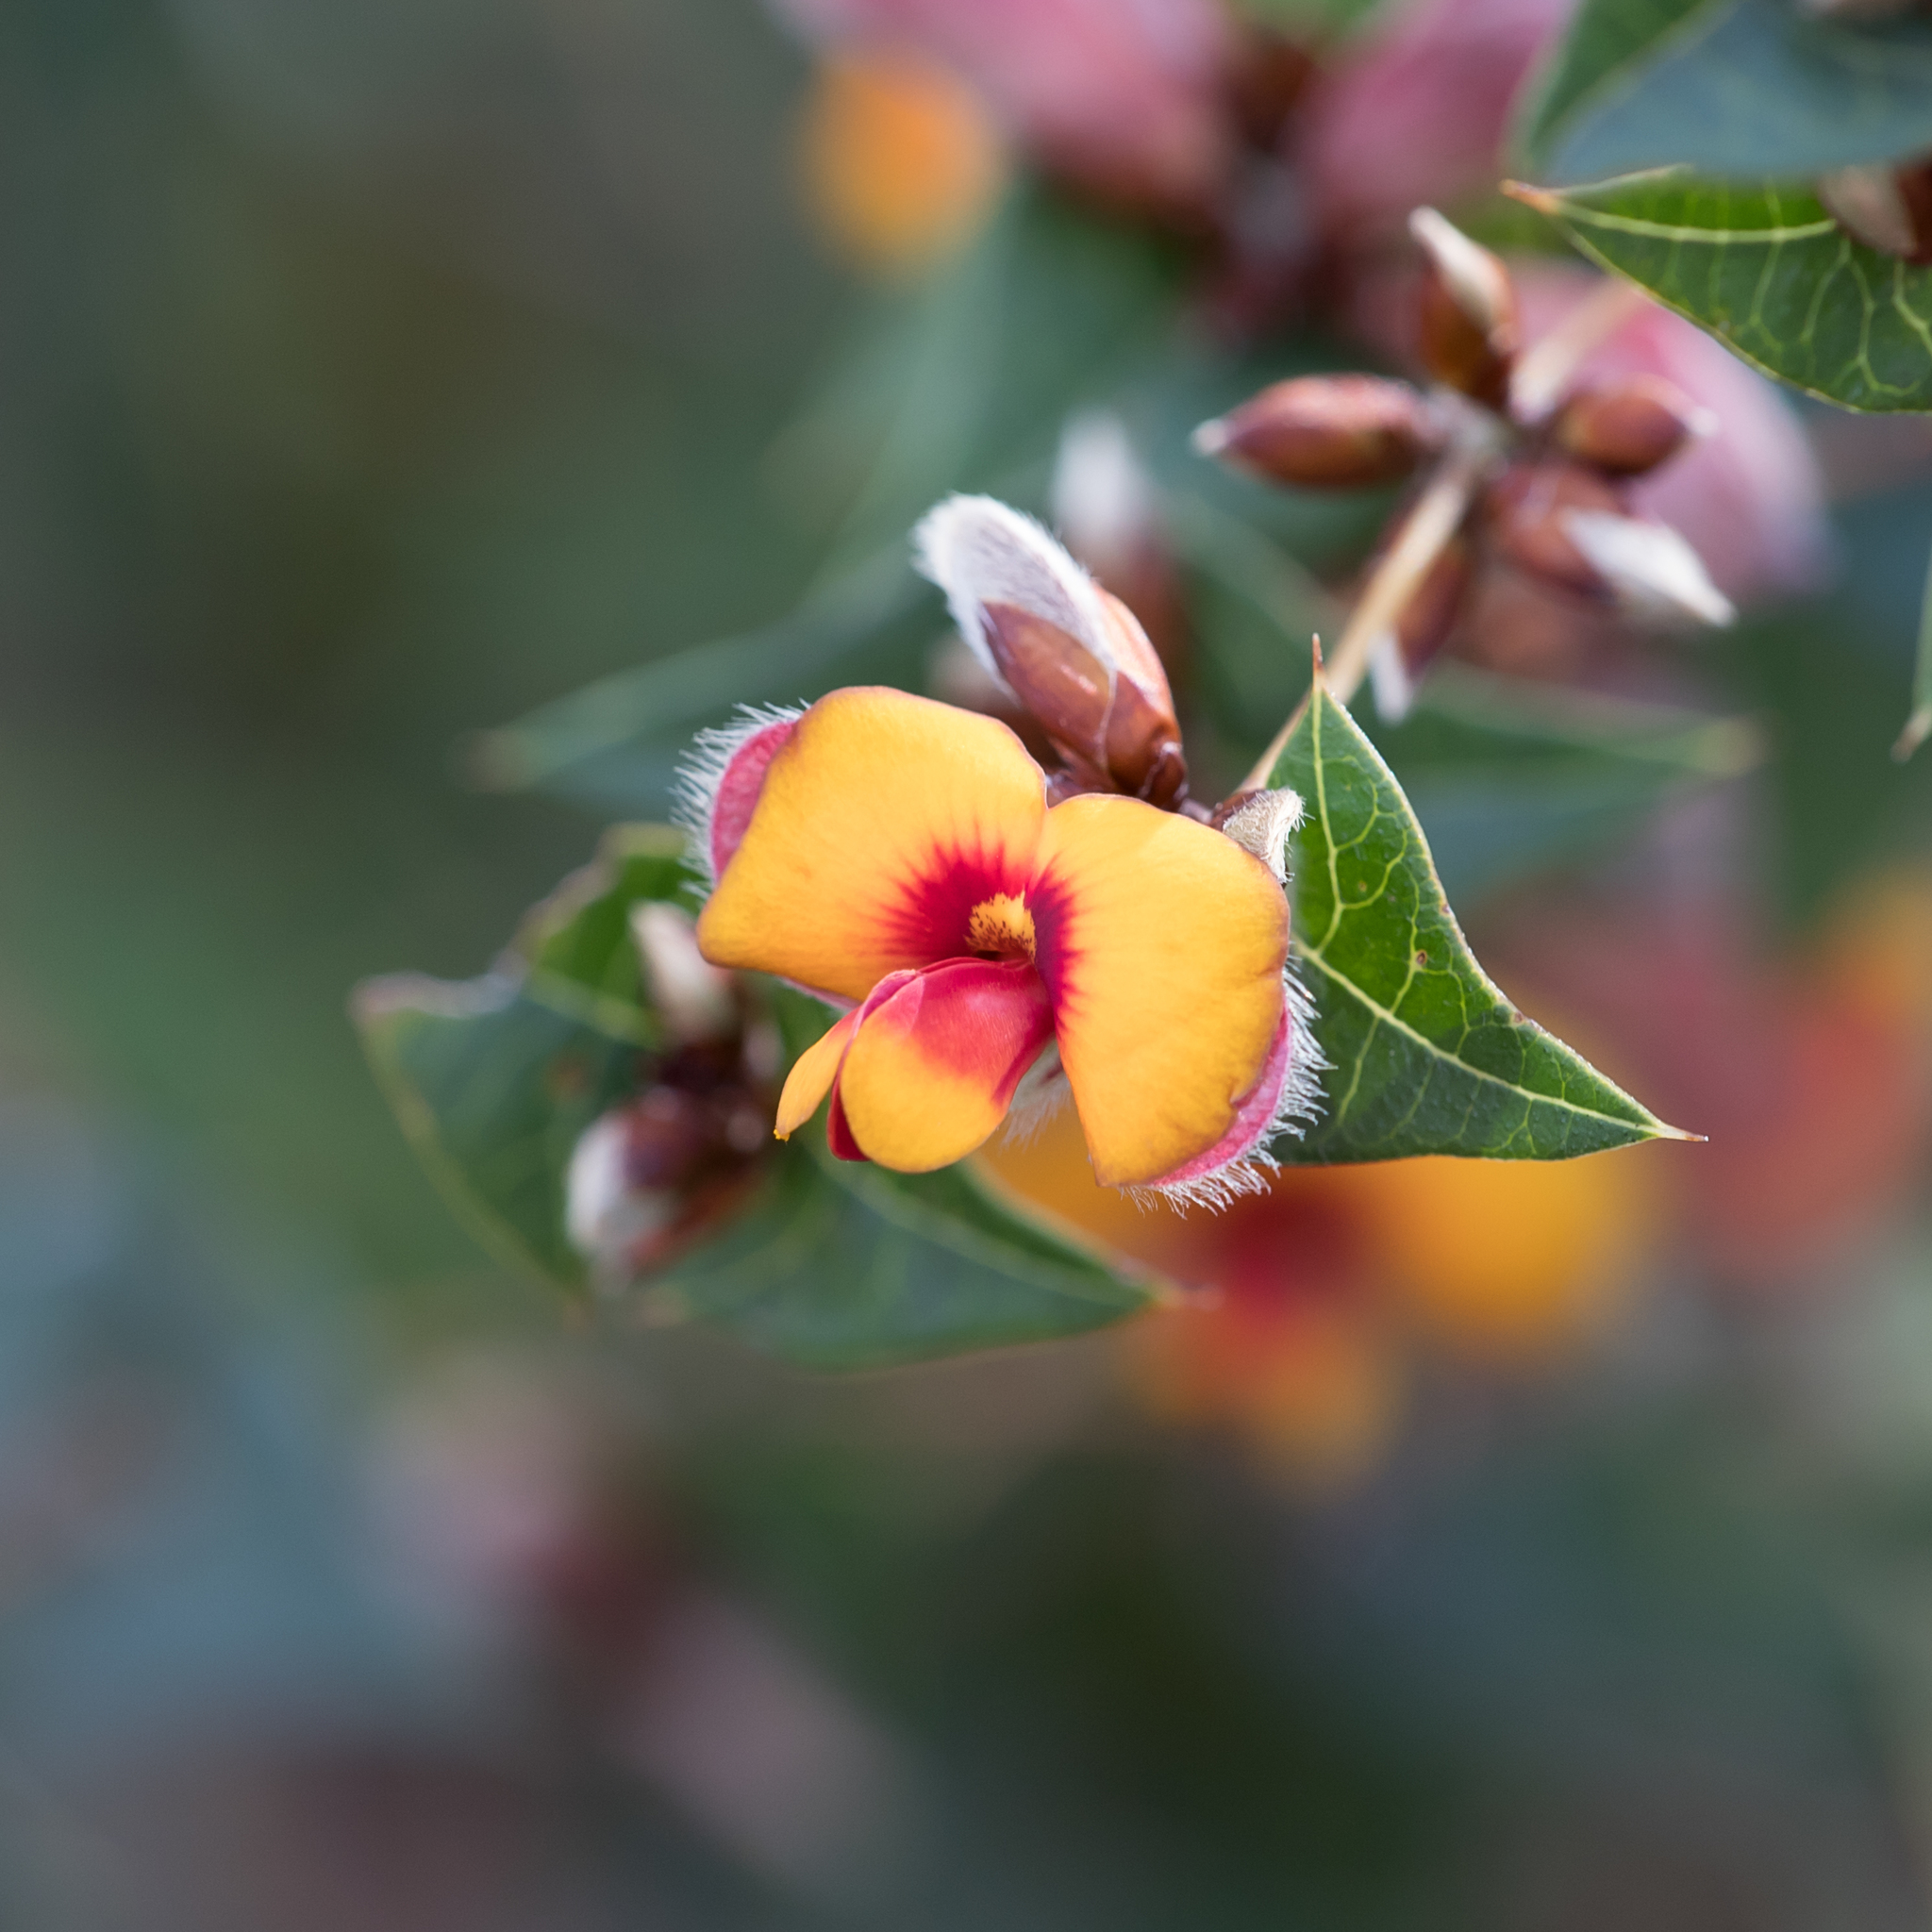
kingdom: Plantae
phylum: Tracheophyta
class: Magnoliopsida
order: Fabales
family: Fabaceae
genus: Platylobium
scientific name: Platylobium obtusangulum
